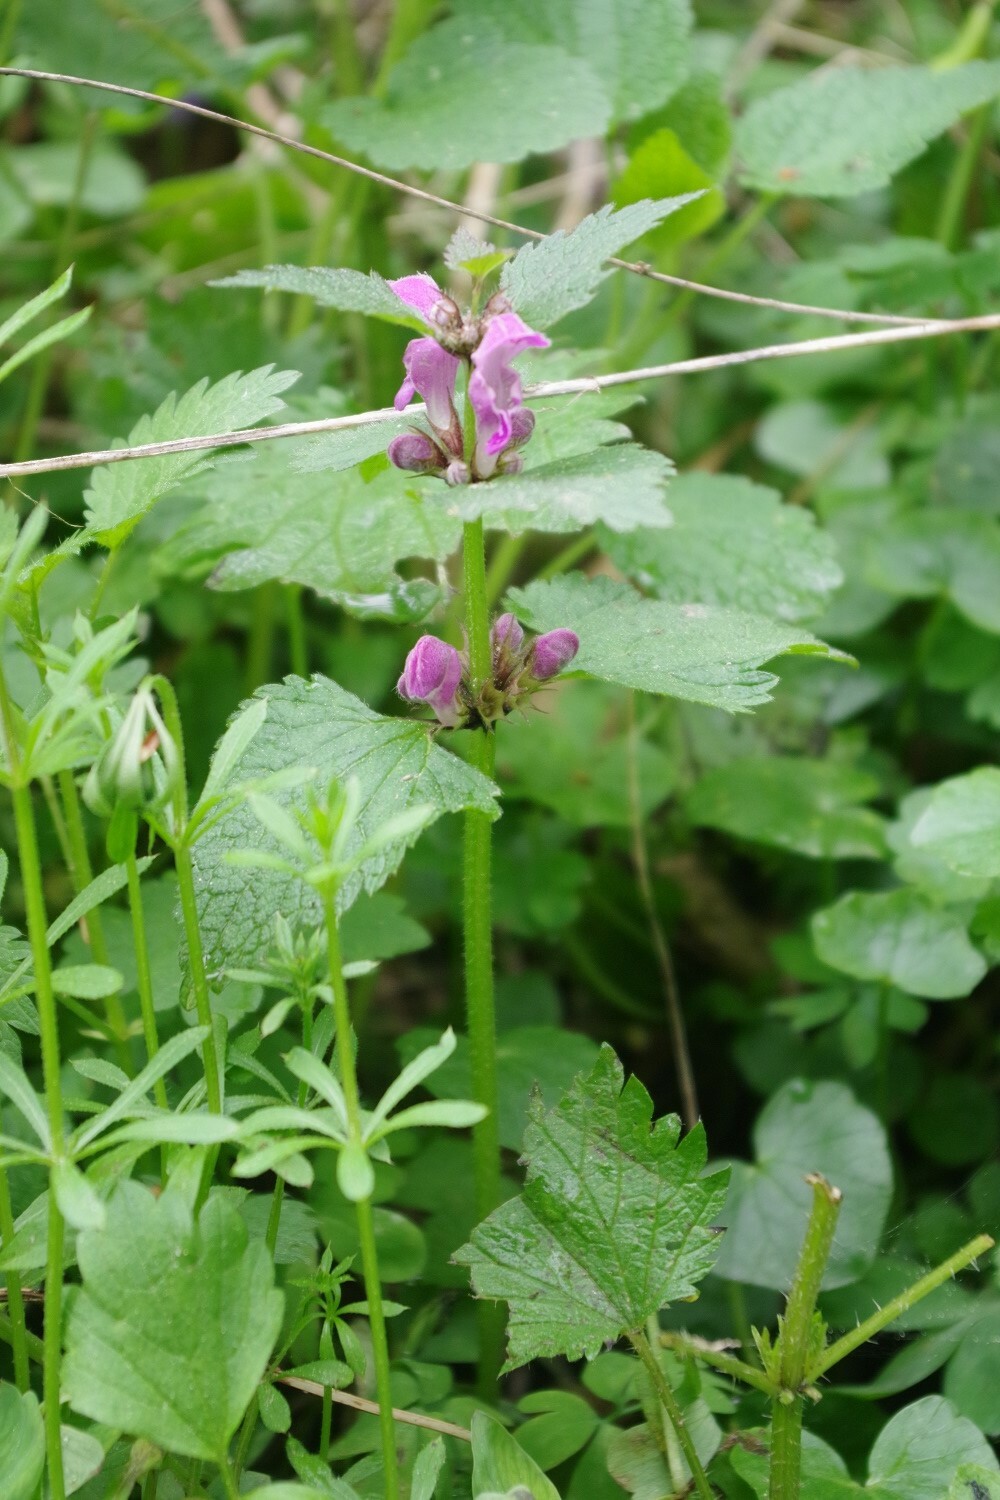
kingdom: Plantae
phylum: Tracheophyta
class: Magnoliopsida
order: Lamiales
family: Lamiaceae
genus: Lamium
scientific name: Lamium maculatum
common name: Spotted dead-nettle
